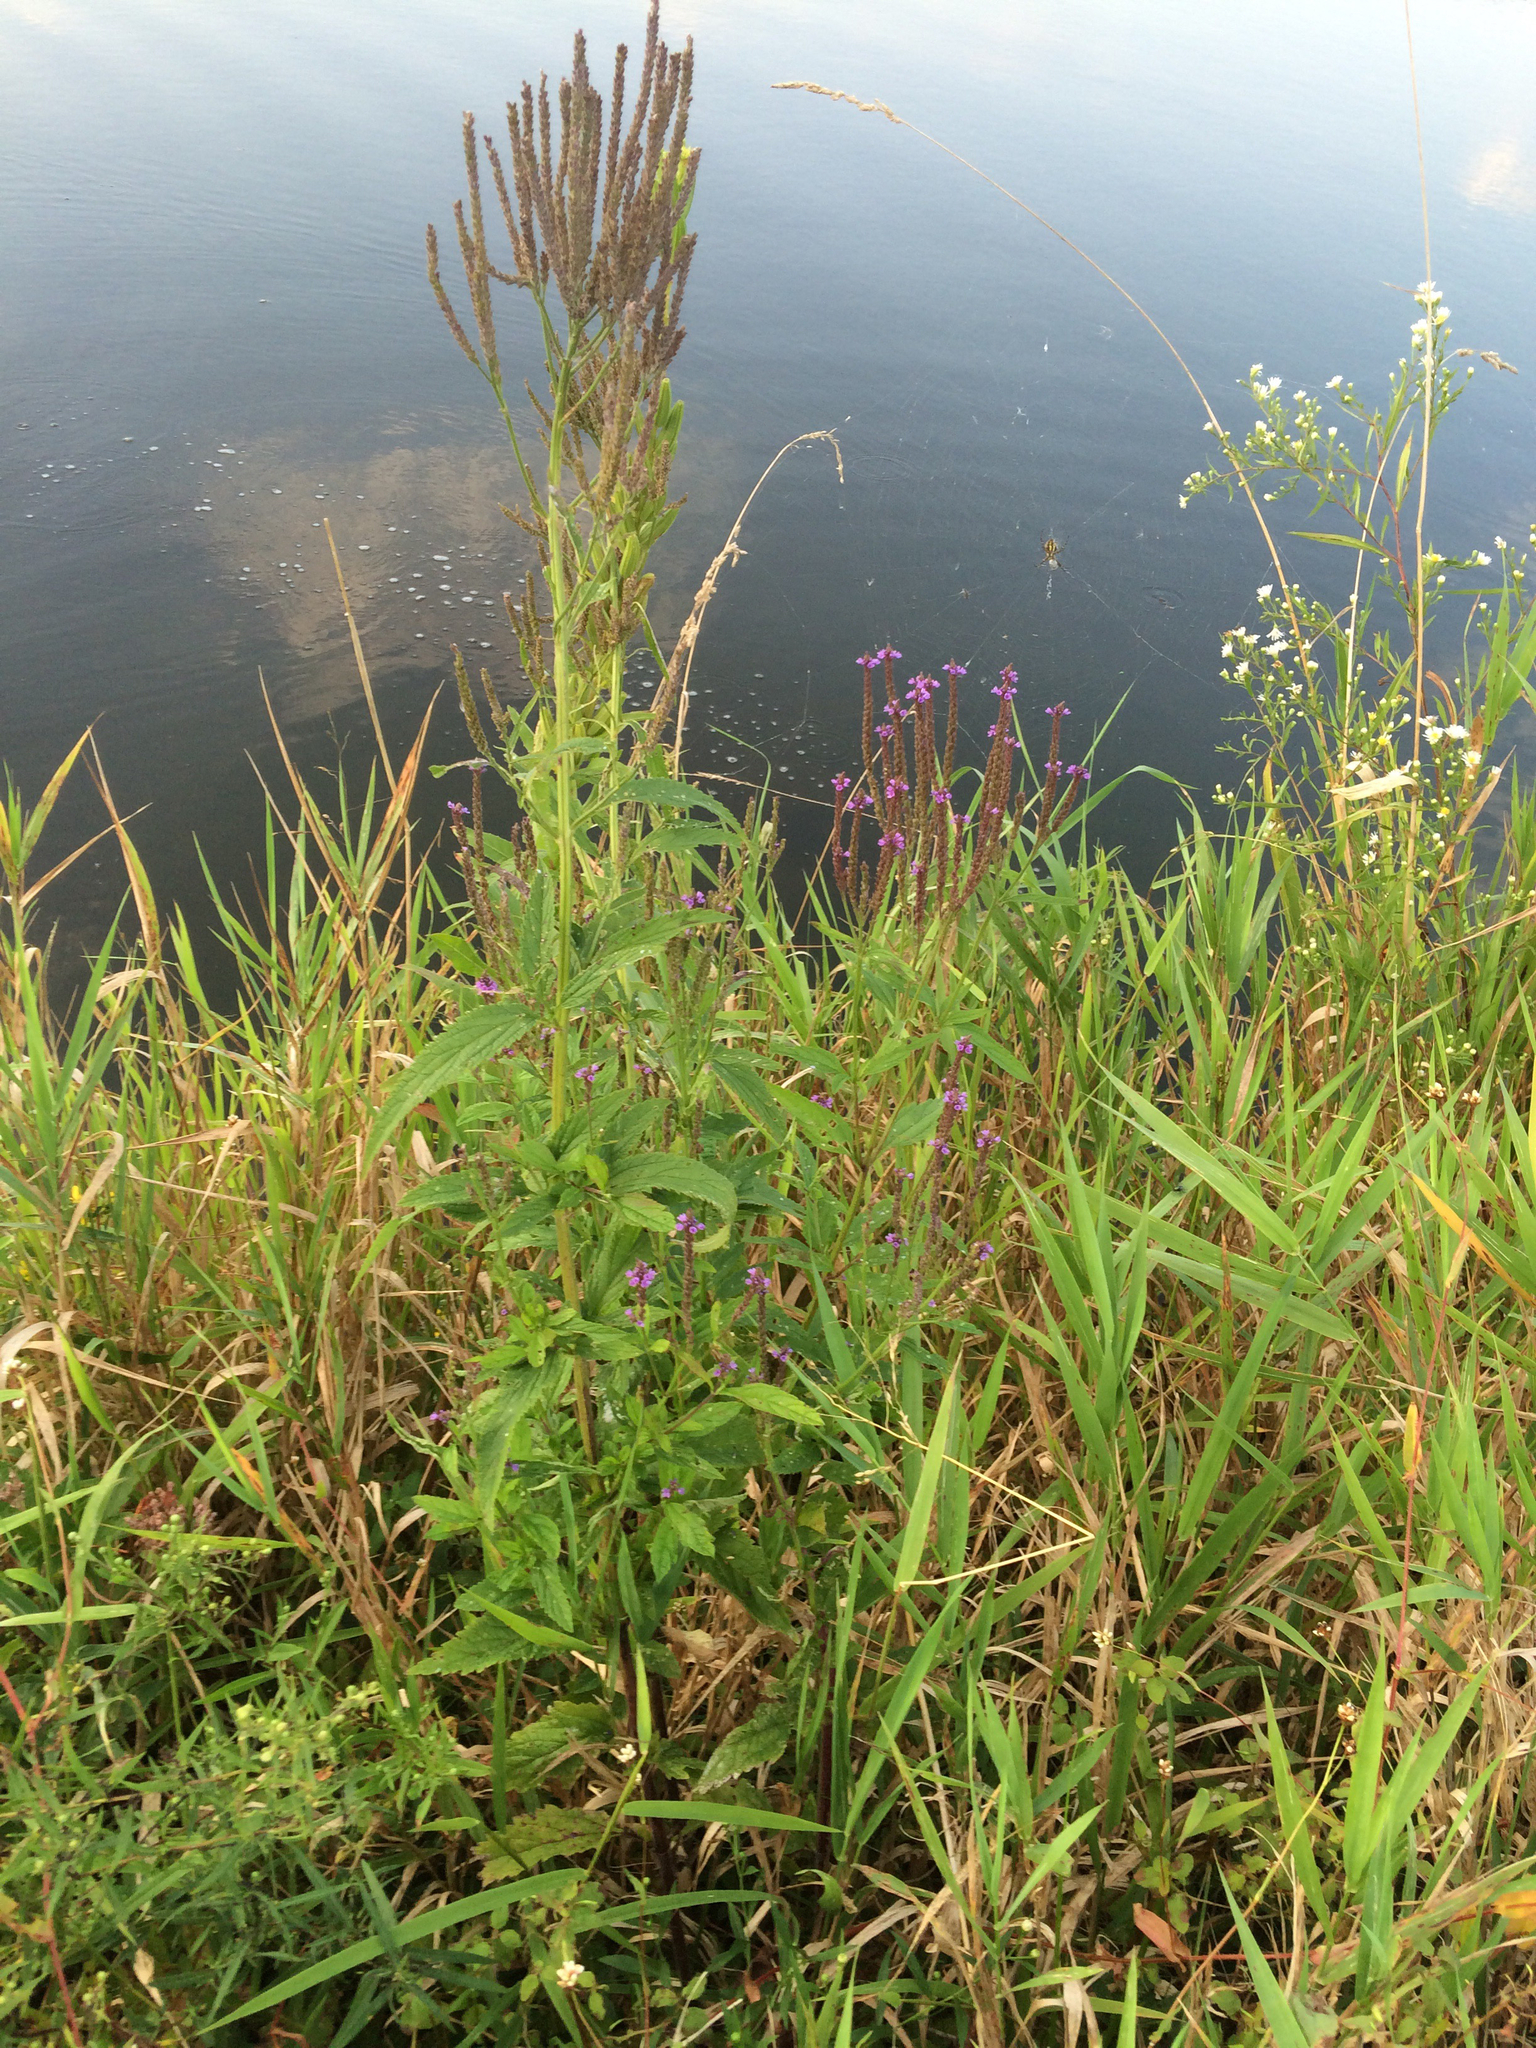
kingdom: Plantae
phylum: Tracheophyta
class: Magnoliopsida
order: Lamiales
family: Verbenaceae
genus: Verbena
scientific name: Verbena hastata
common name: American blue vervain
